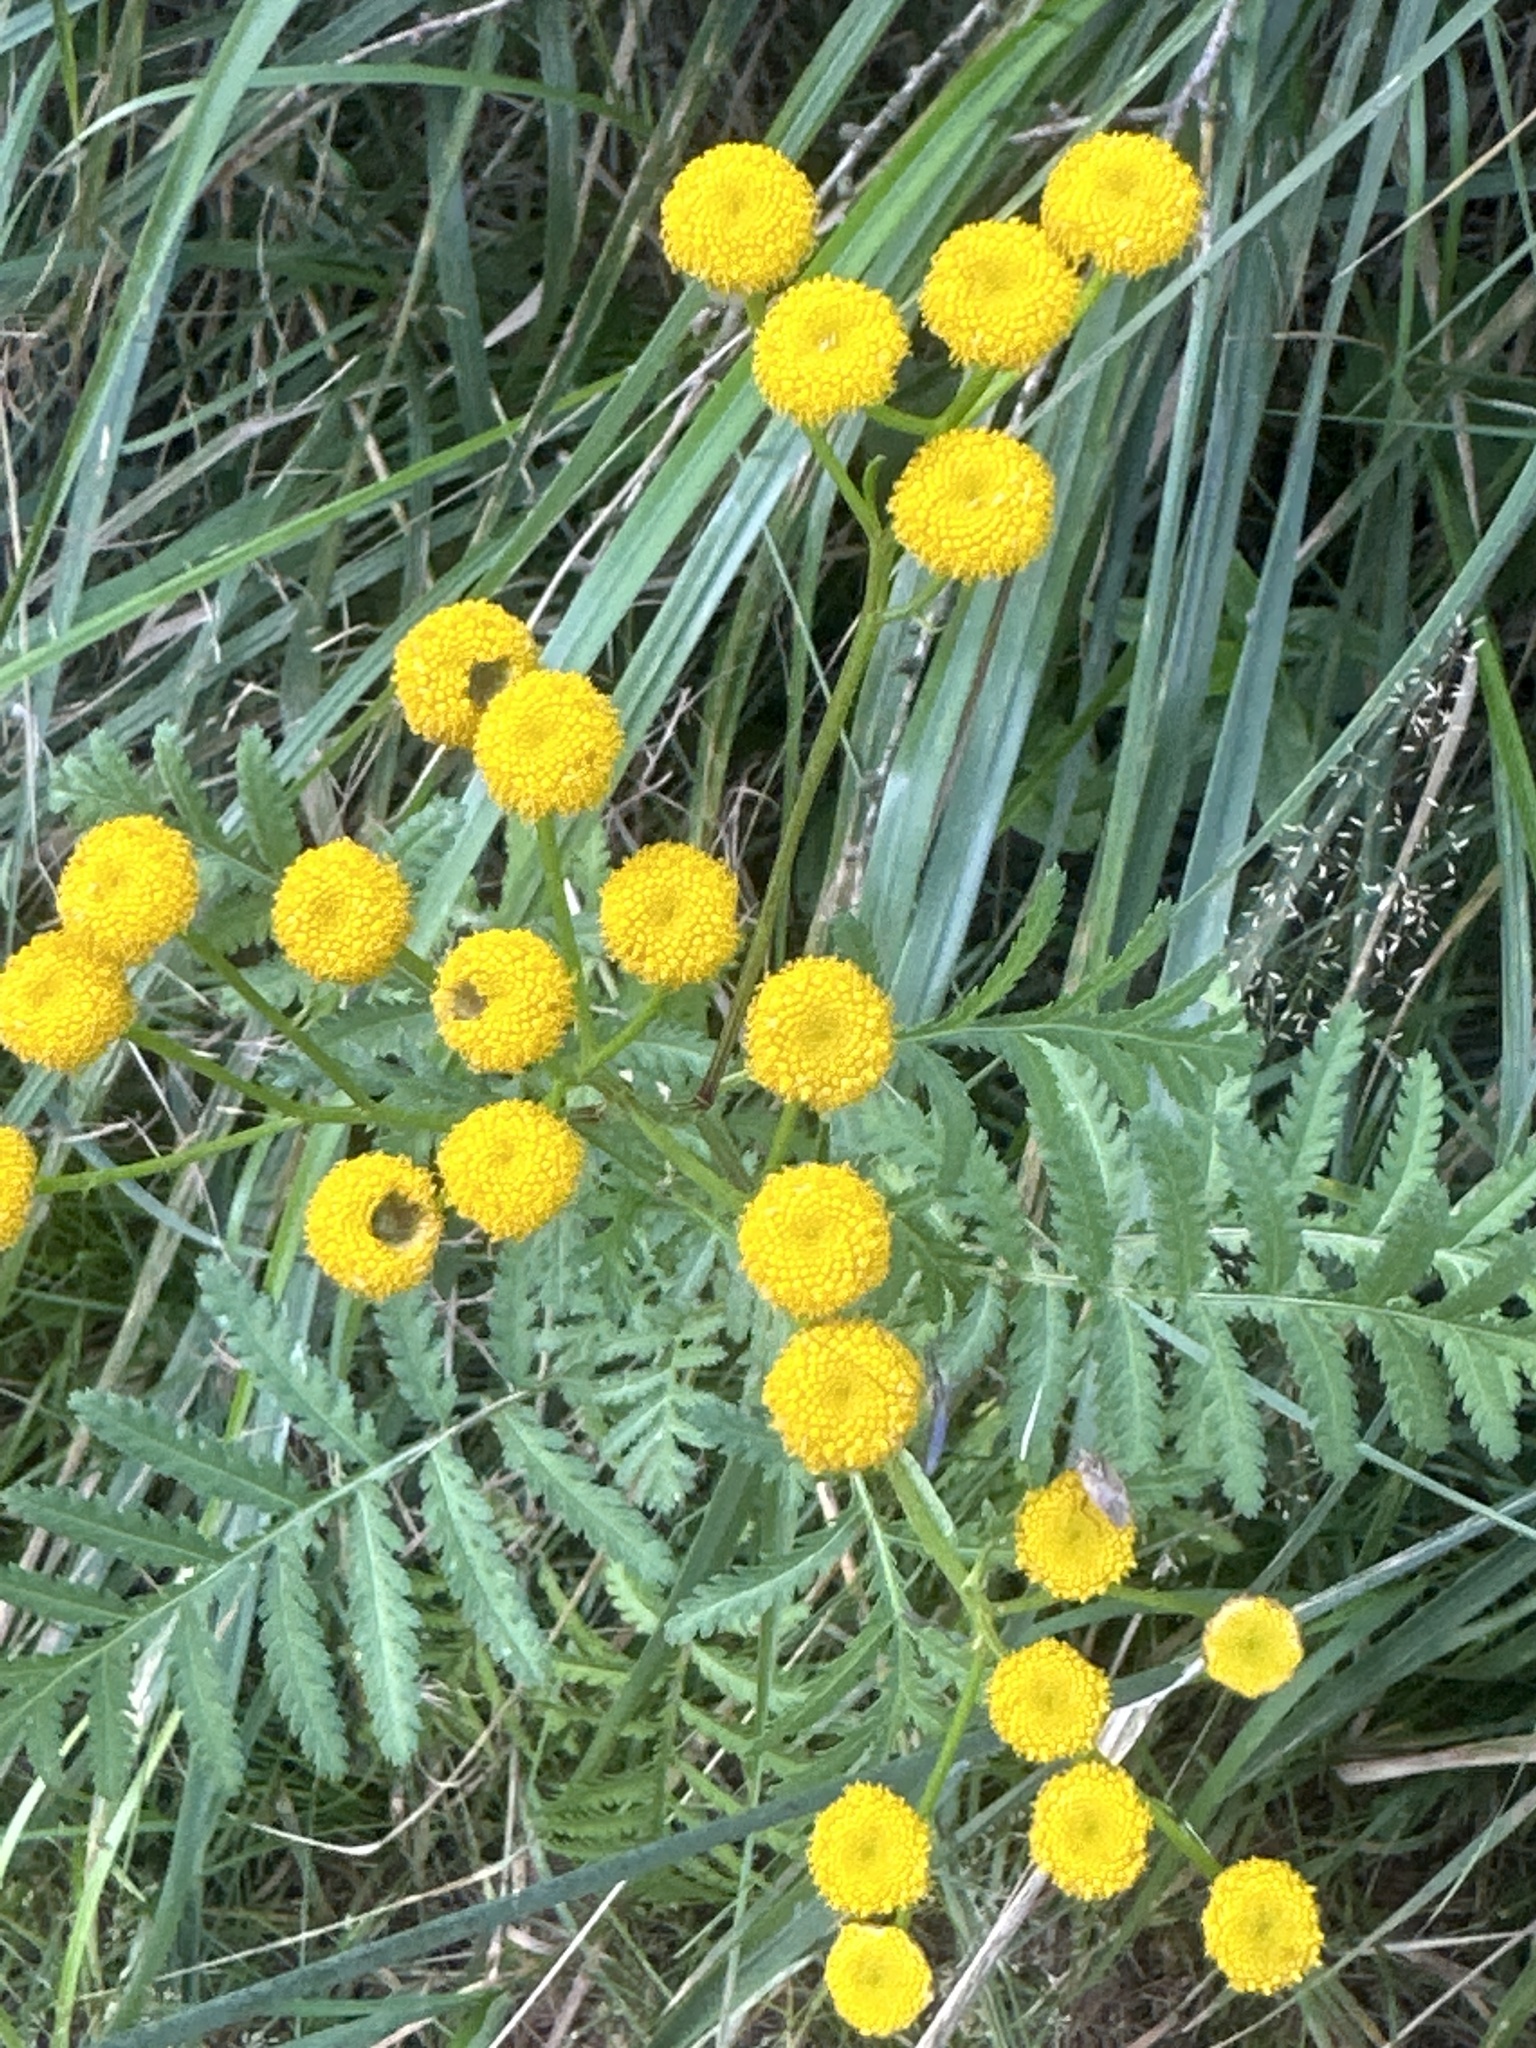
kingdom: Plantae
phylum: Tracheophyta
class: Magnoliopsida
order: Asterales
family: Asteraceae
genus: Tanacetum
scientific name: Tanacetum vulgare
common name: Common tansy
